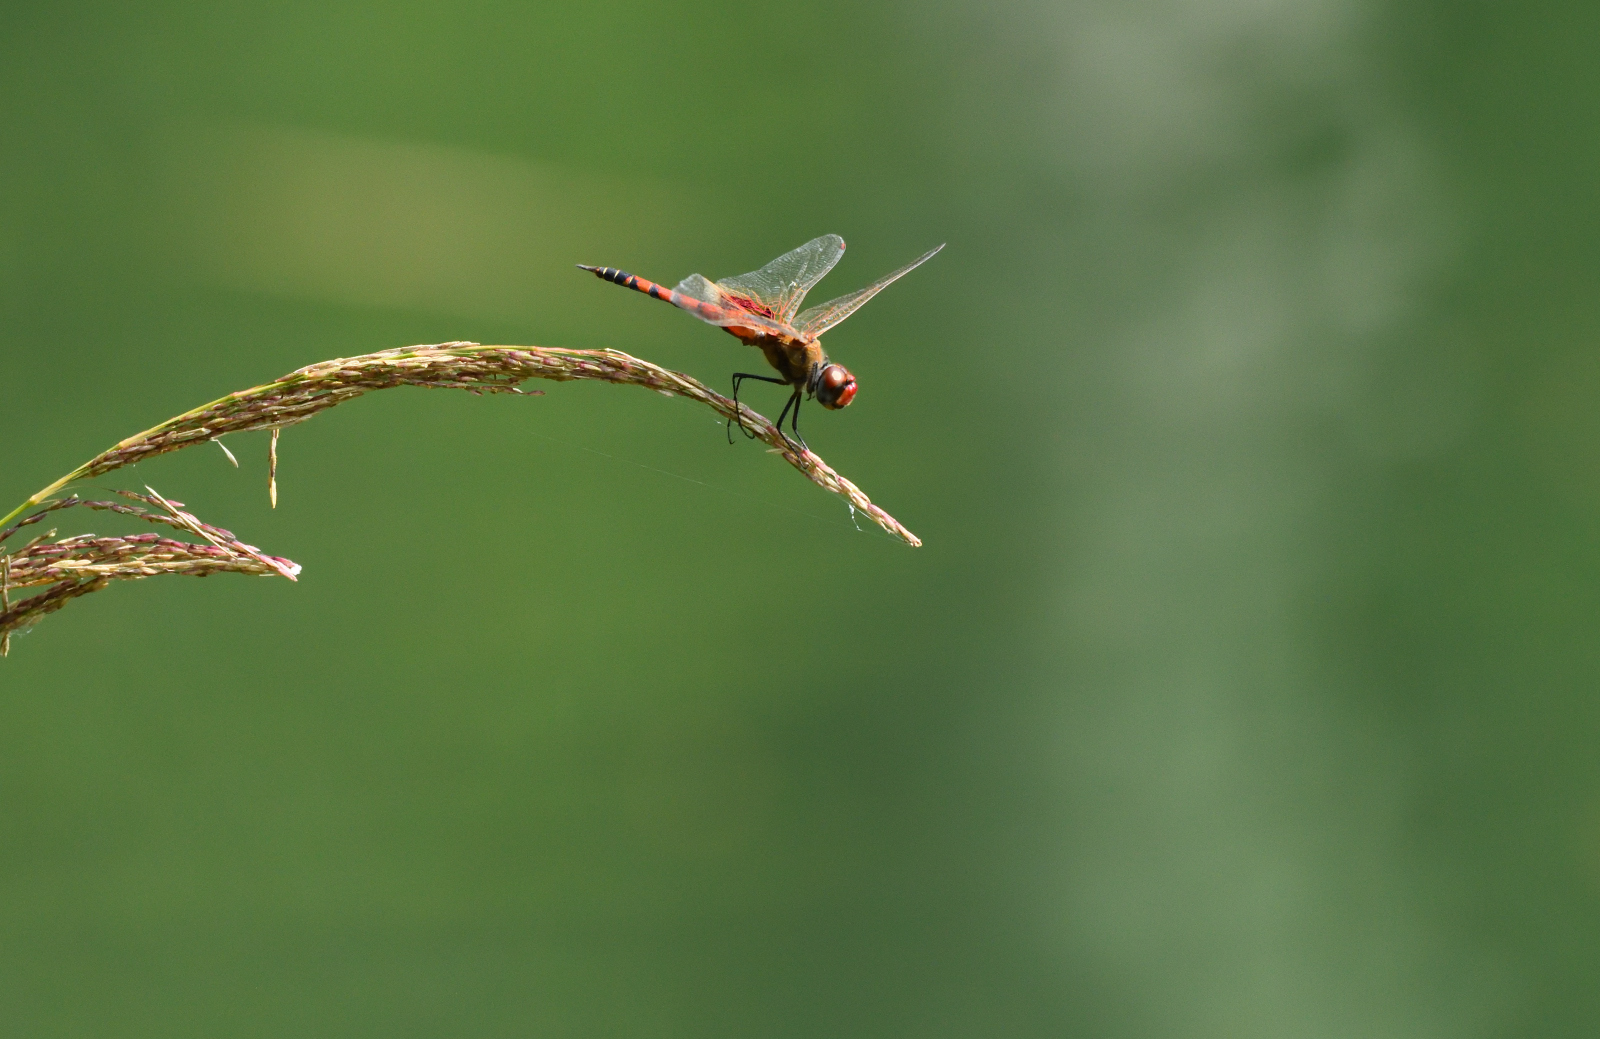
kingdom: Animalia
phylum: Arthropoda
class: Insecta
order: Odonata
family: Libellulidae
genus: Tramea
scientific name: Tramea basilaris
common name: Keyhole glider
